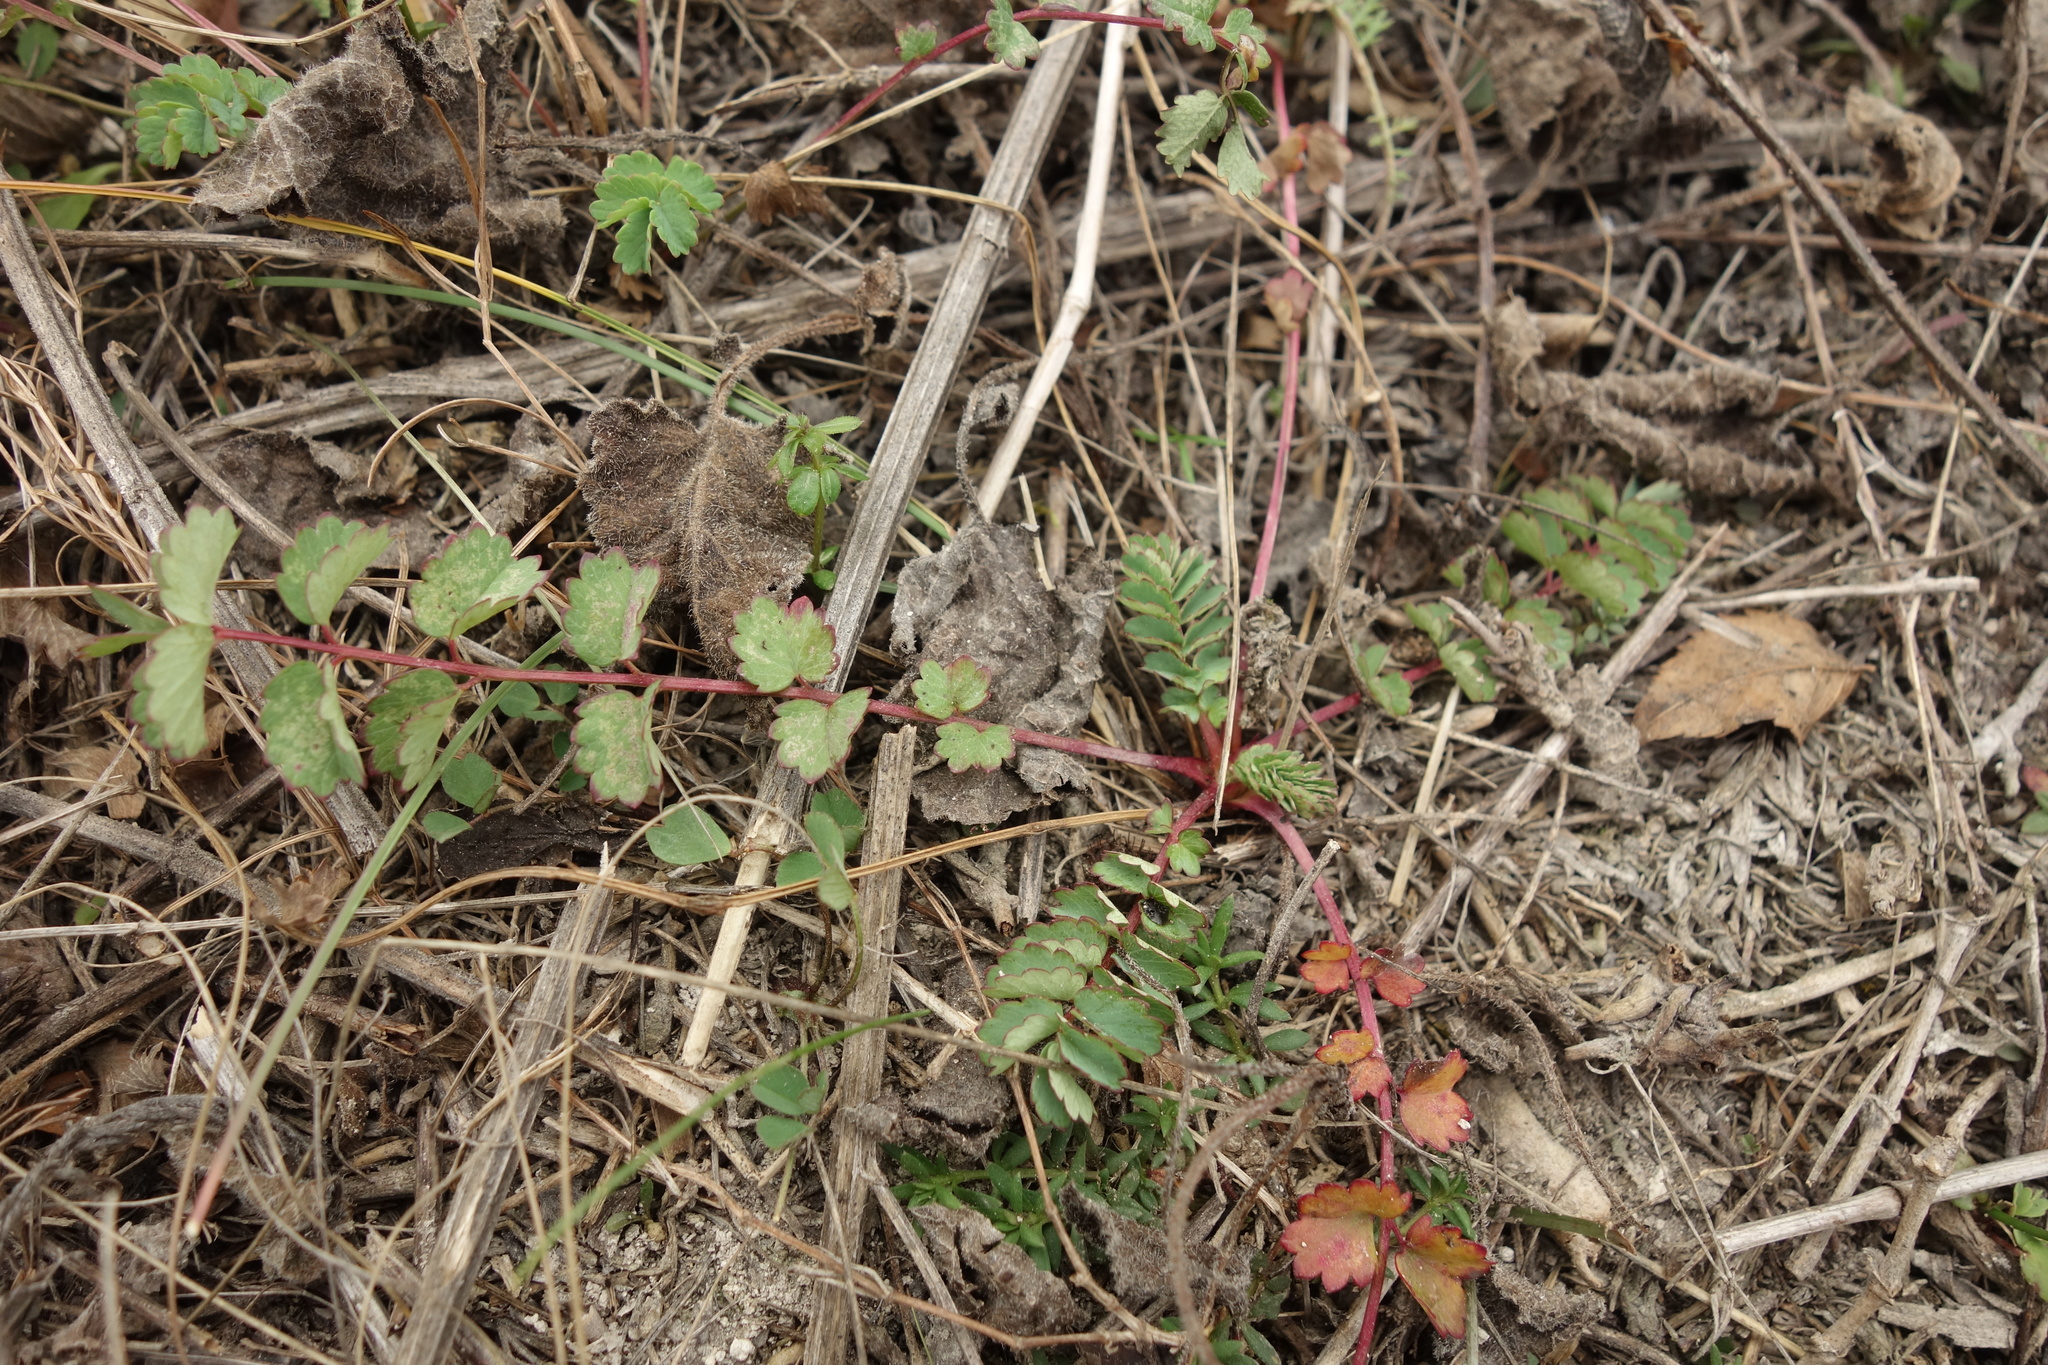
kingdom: Plantae
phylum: Tracheophyta
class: Magnoliopsida
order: Rosales
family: Rosaceae
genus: Poterium
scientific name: Poterium sanguisorba
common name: Salad burnet
